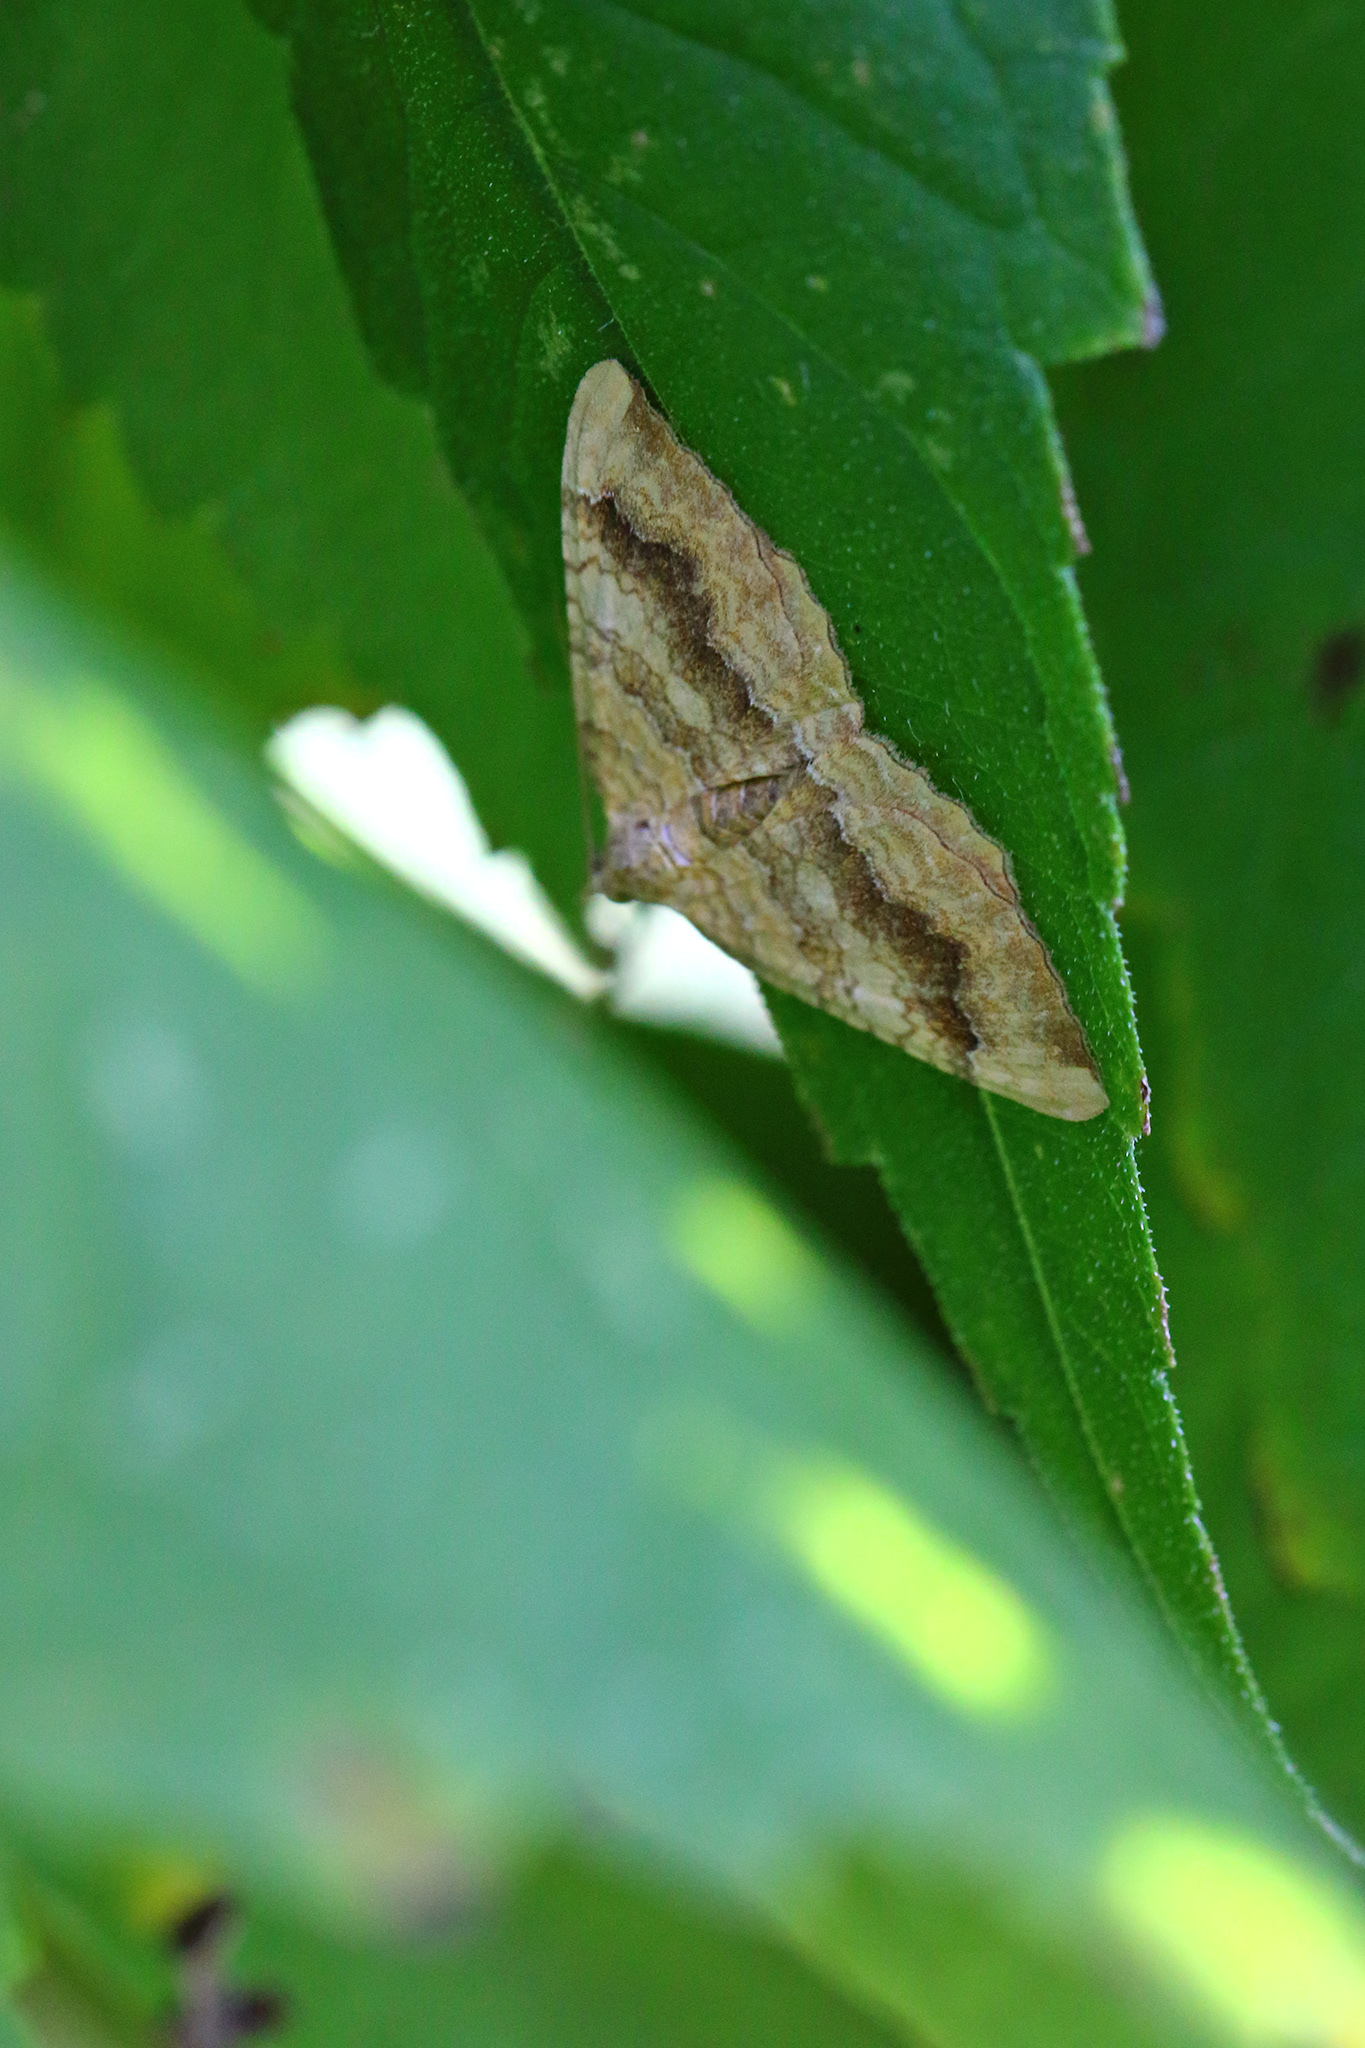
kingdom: Animalia
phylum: Arthropoda
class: Insecta
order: Lepidoptera
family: Geometridae
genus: Camptogramma
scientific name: Camptogramma bilineata
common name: Yellow shell
